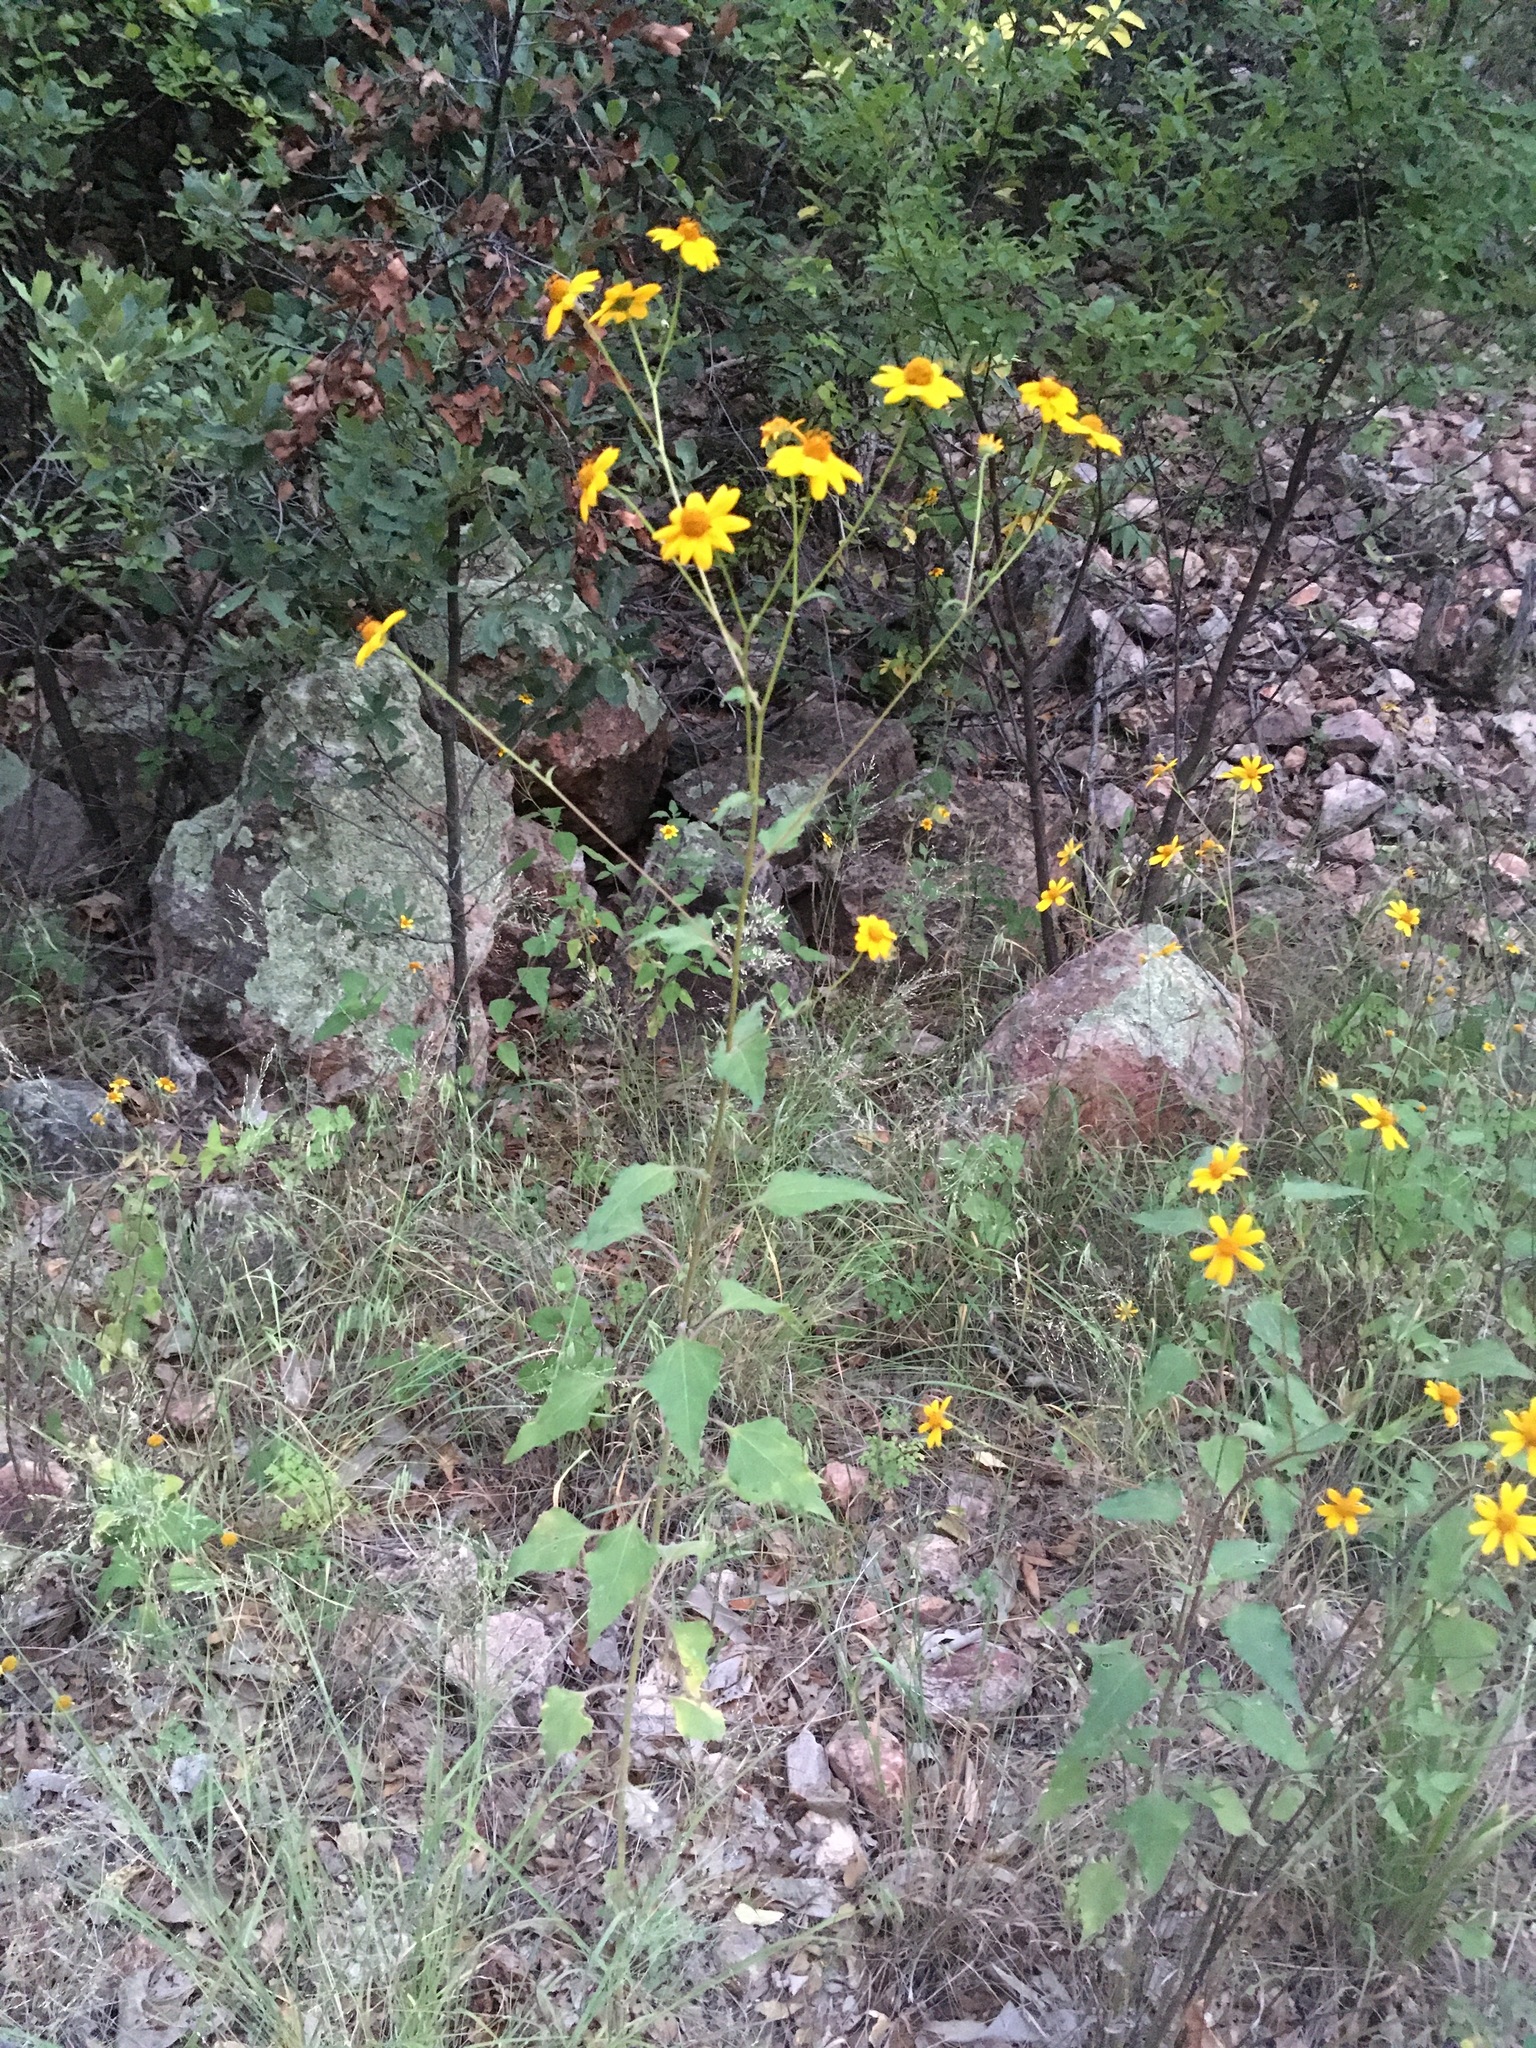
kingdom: Plantae
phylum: Tracheophyta
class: Magnoliopsida
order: Asterales
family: Asteraceae
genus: Viguiera
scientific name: Viguiera dentata
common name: Toothleaf
